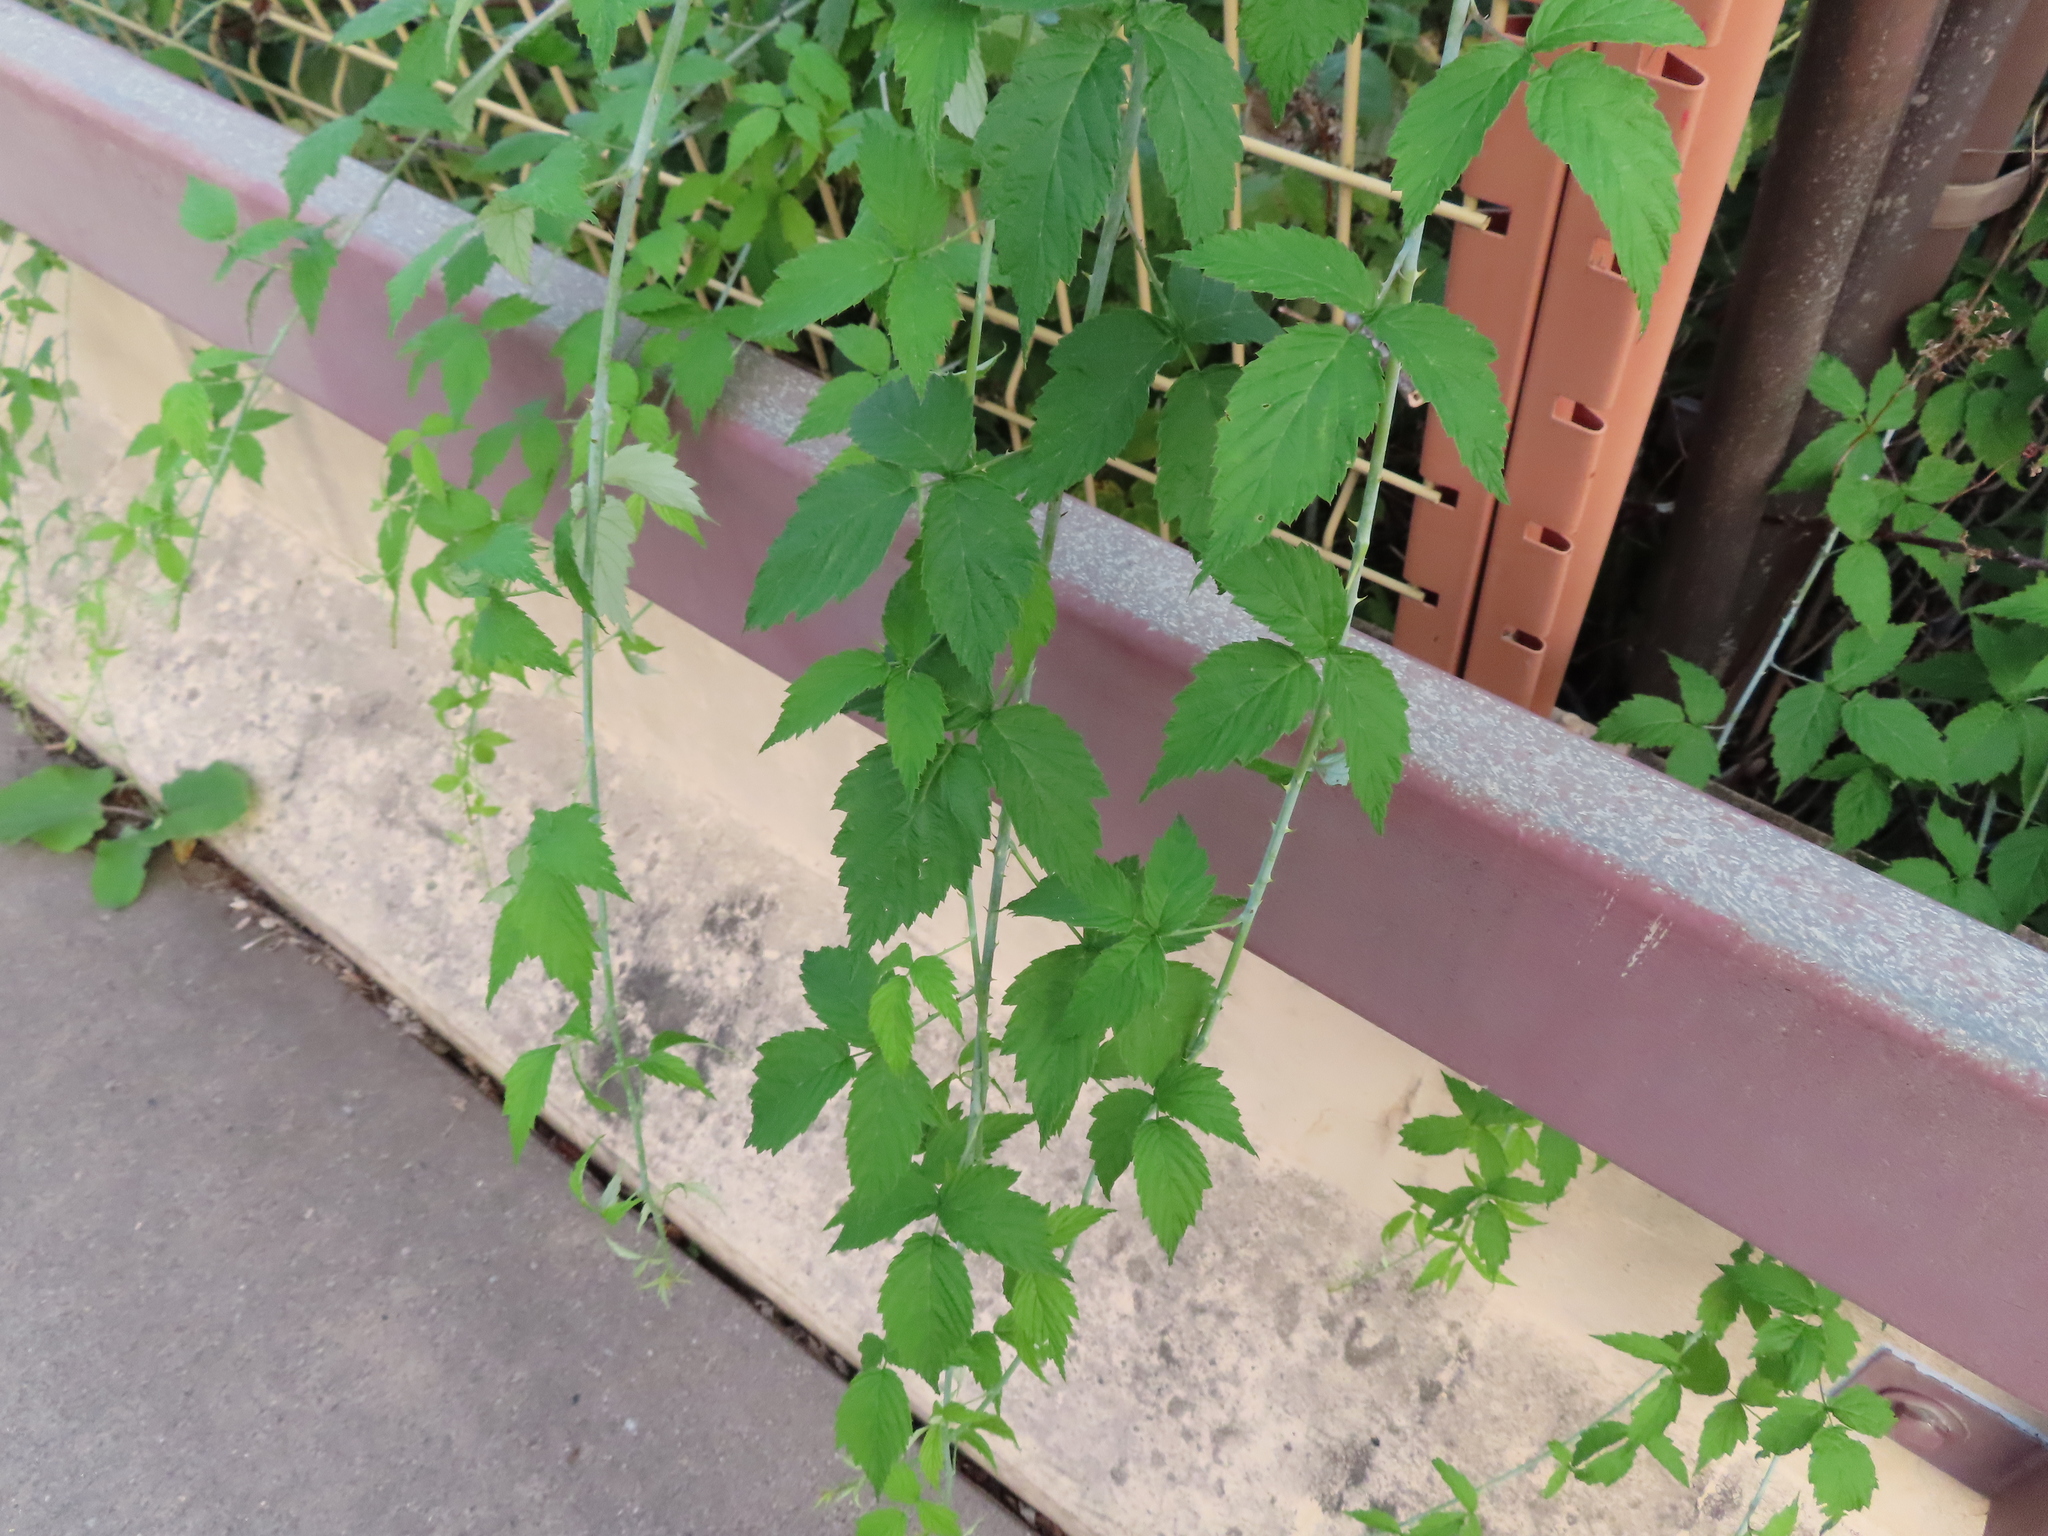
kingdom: Plantae
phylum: Tracheophyta
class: Magnoliopsida
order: Rosales
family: Rosaceae
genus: Rubus
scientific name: Rubus occidentalis
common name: Black raspberry
